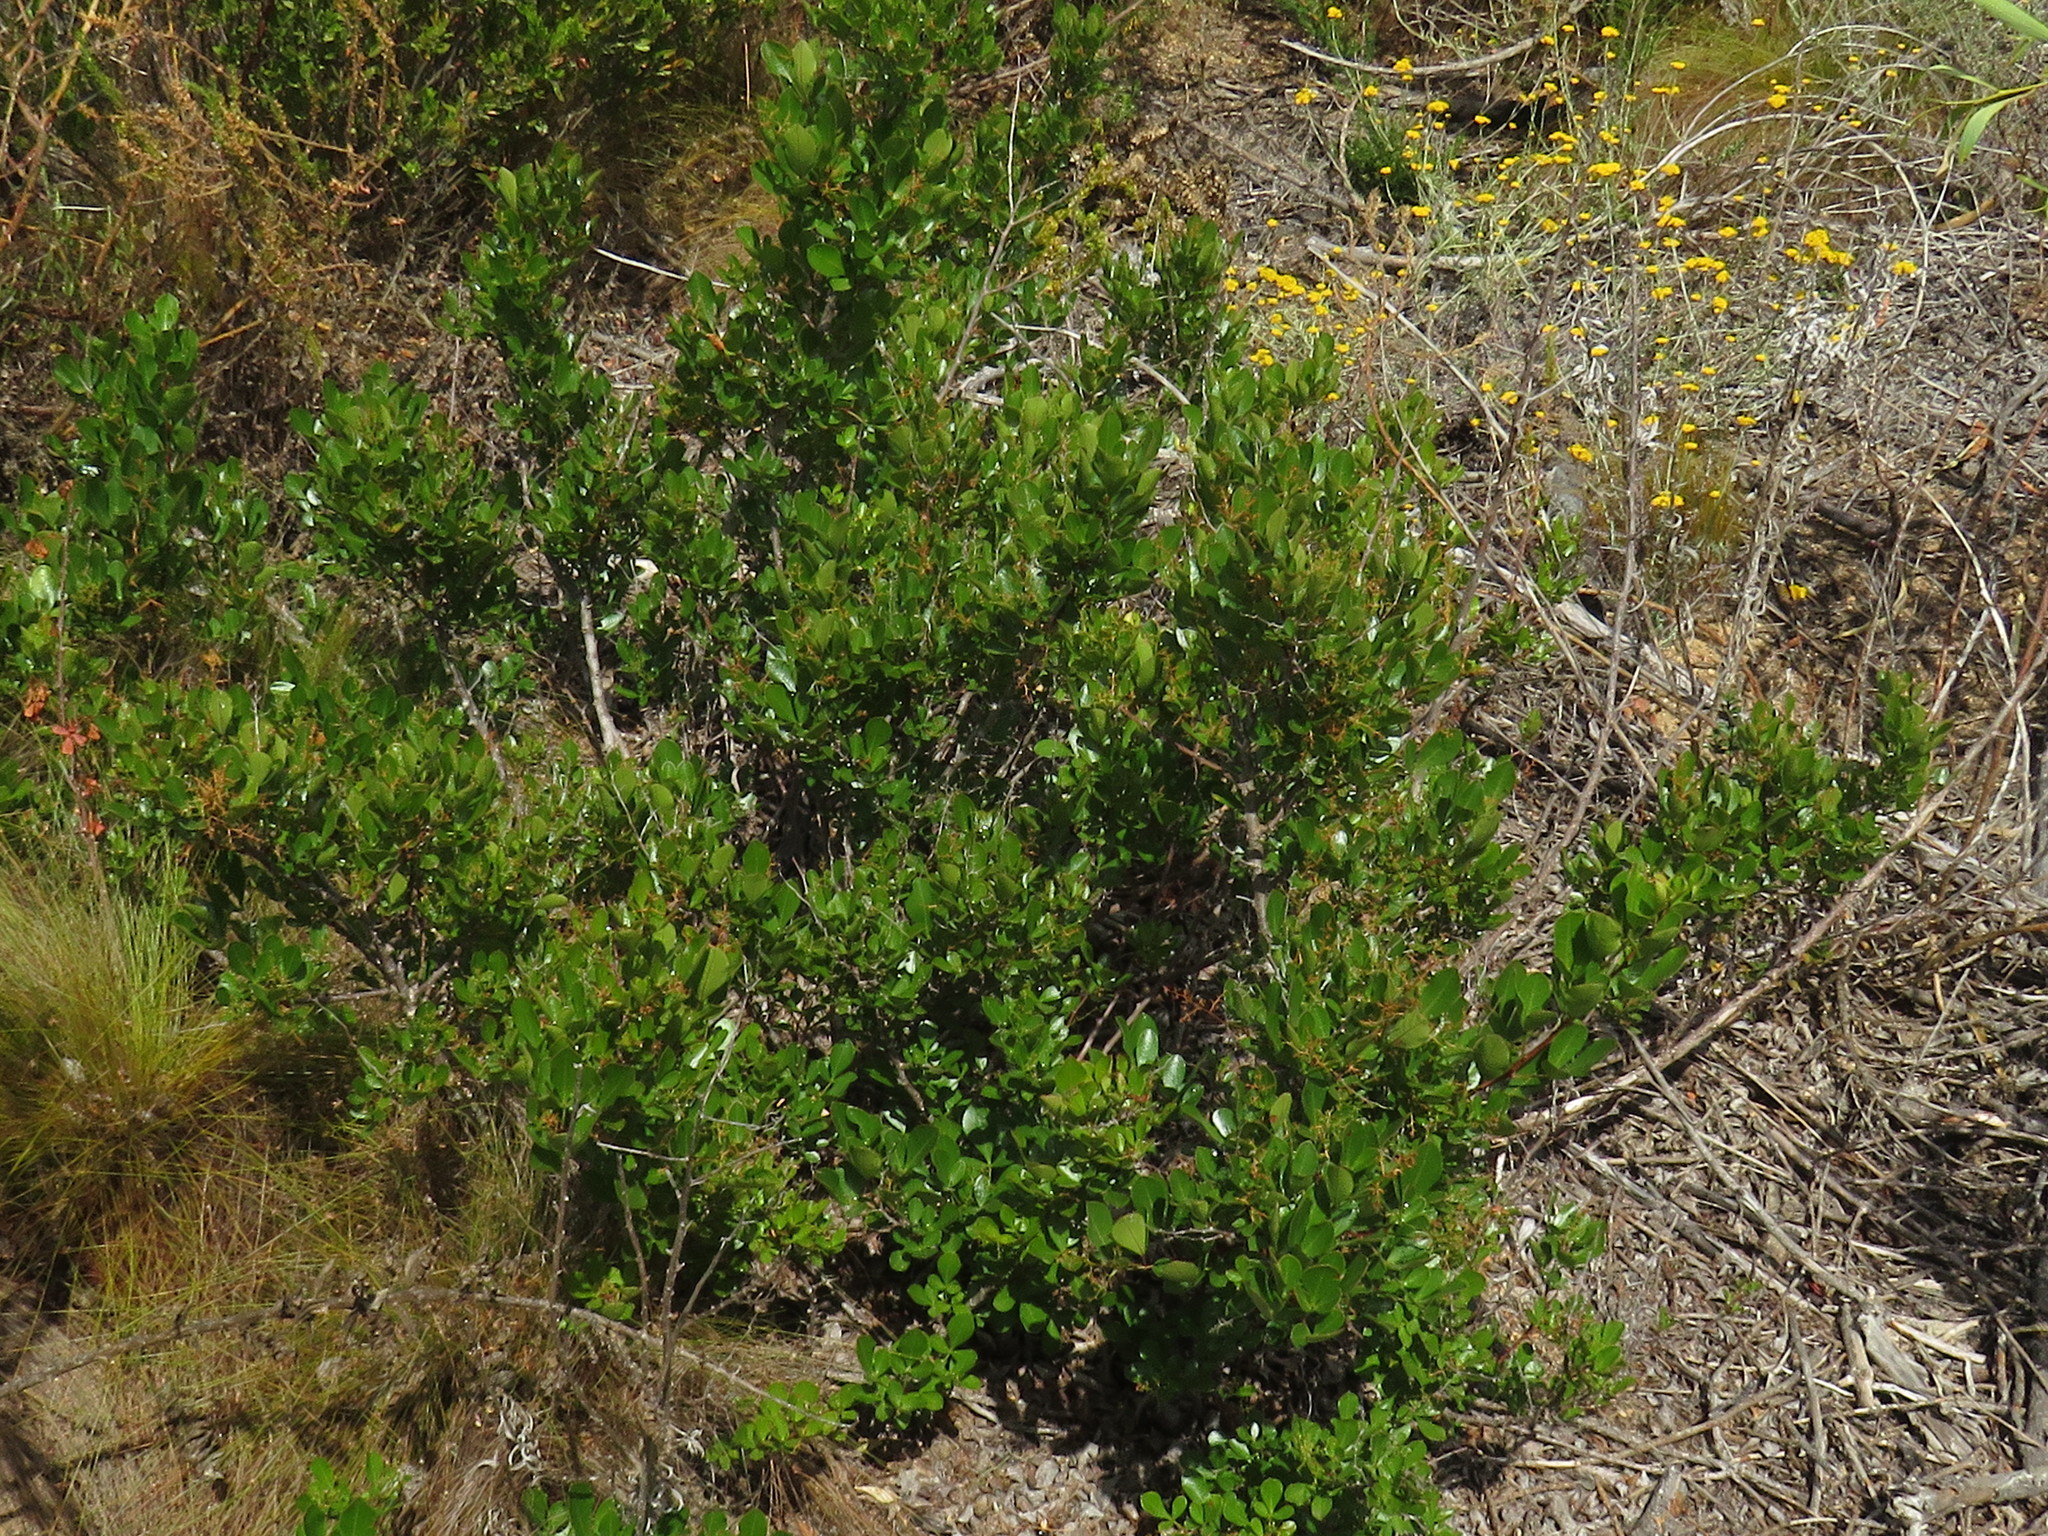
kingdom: Plantae
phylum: Tracheophyta
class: Magnoliopsida
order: Sapindales
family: Anacardiaceae
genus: Searsia
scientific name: Searsia laevigata
